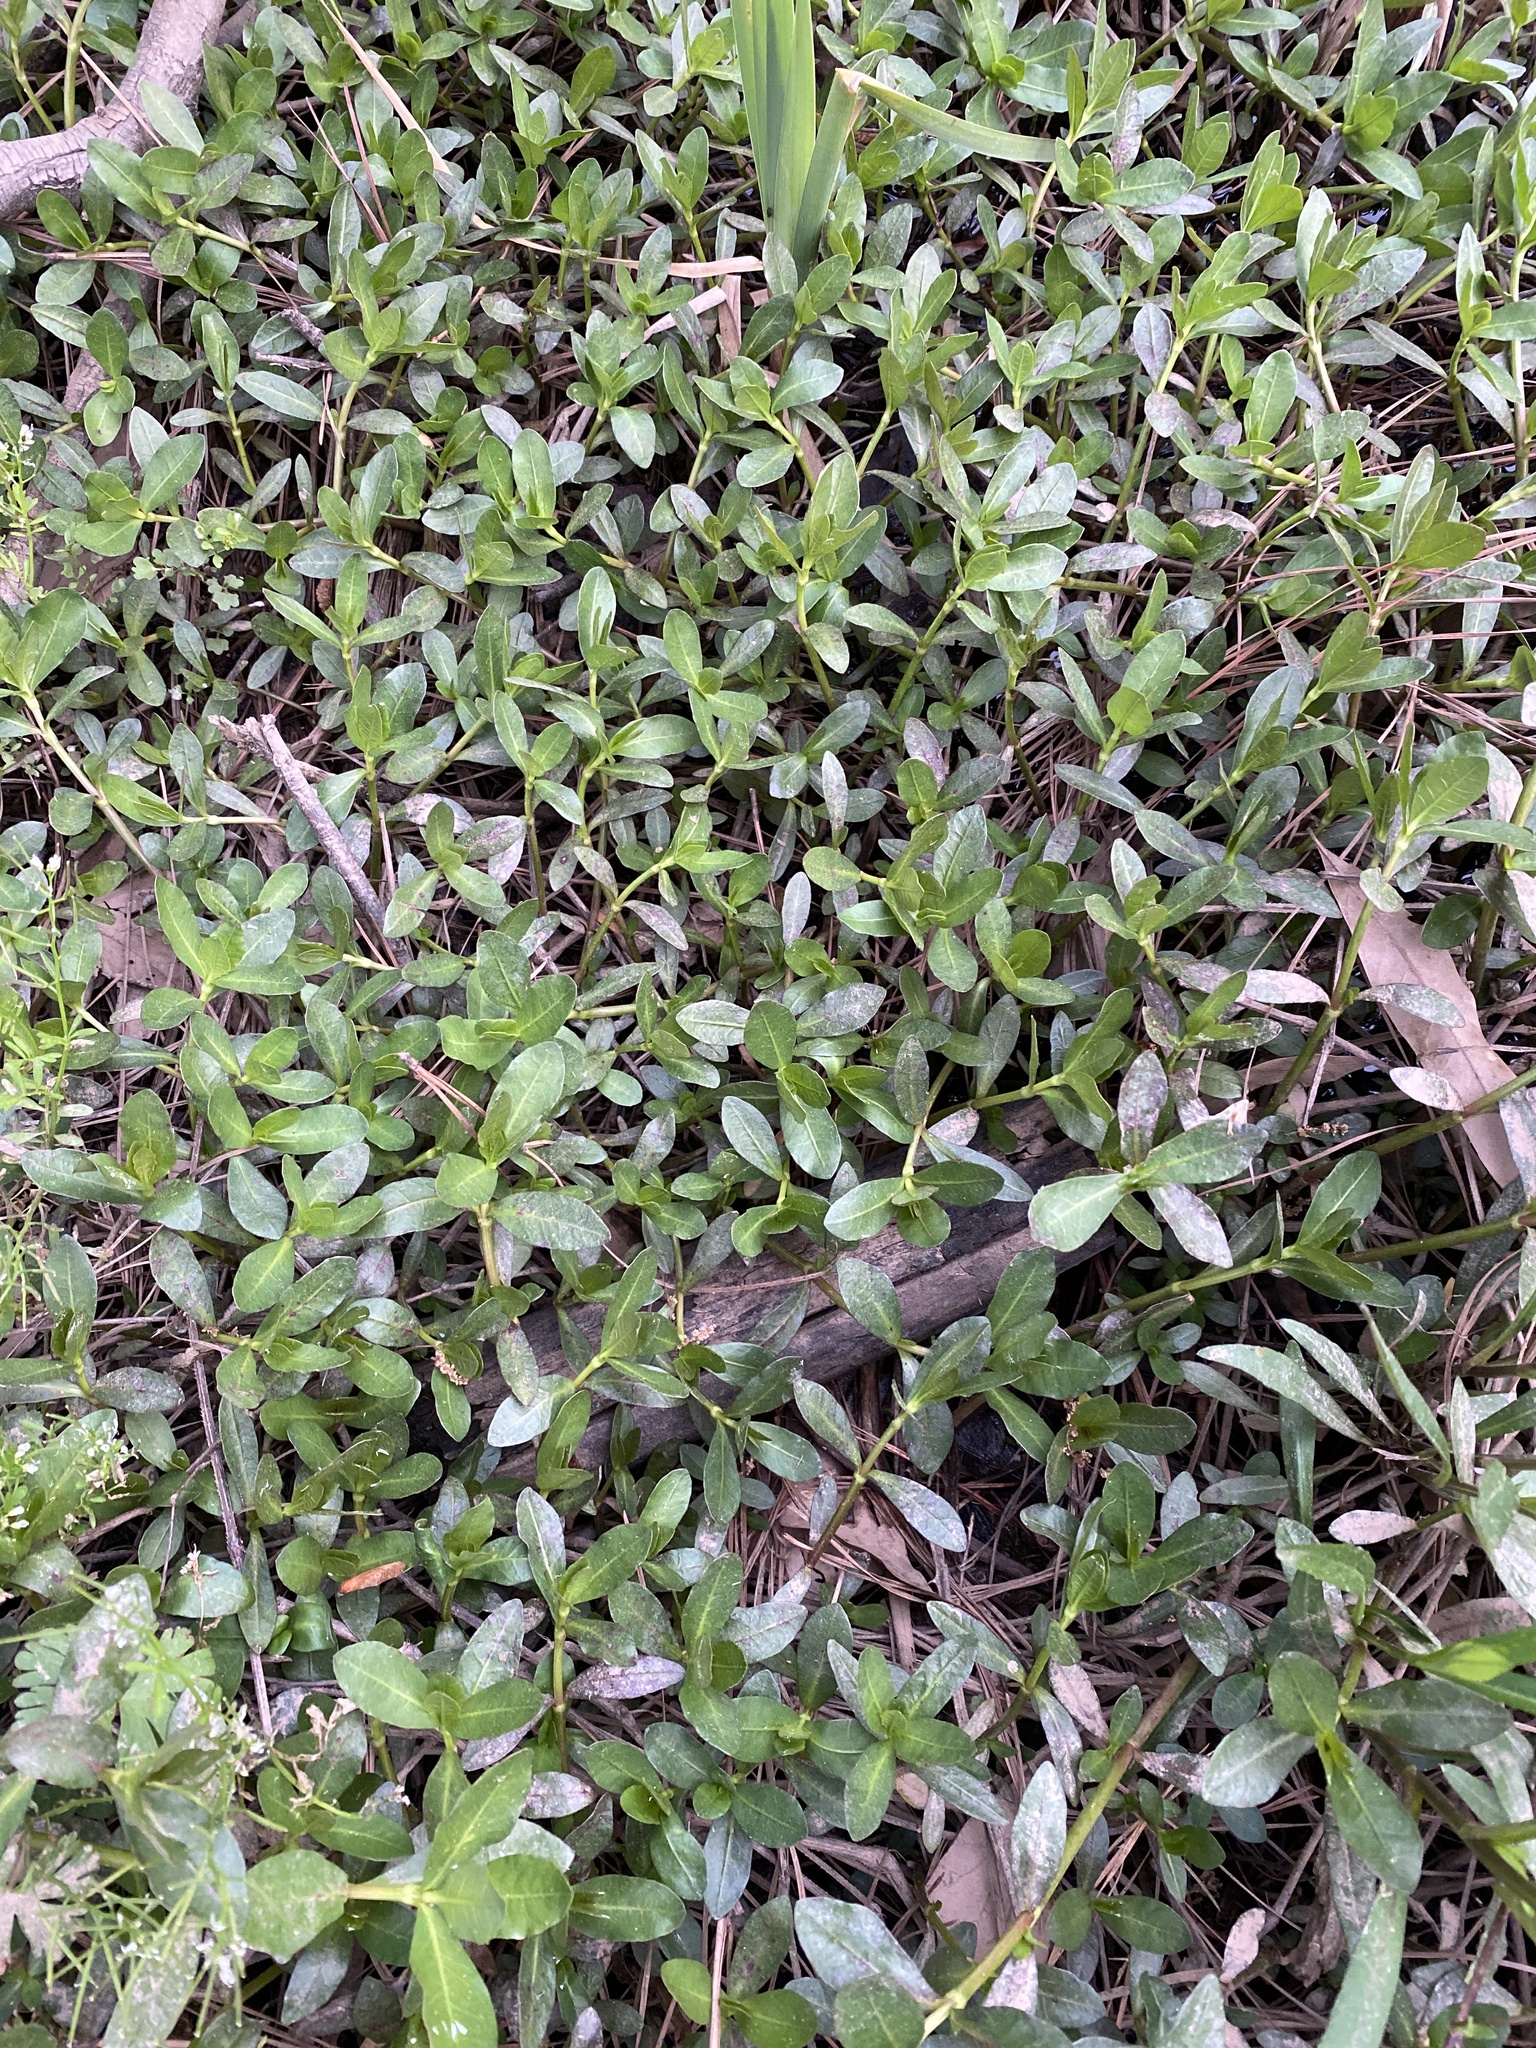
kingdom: Plantae
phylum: Tracheophyta
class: Magnoliopsida
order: Caryophyllales
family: Amaranthaceae
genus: Alternanthera
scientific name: Alternanthera philoxeroides
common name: Alligatorweed
